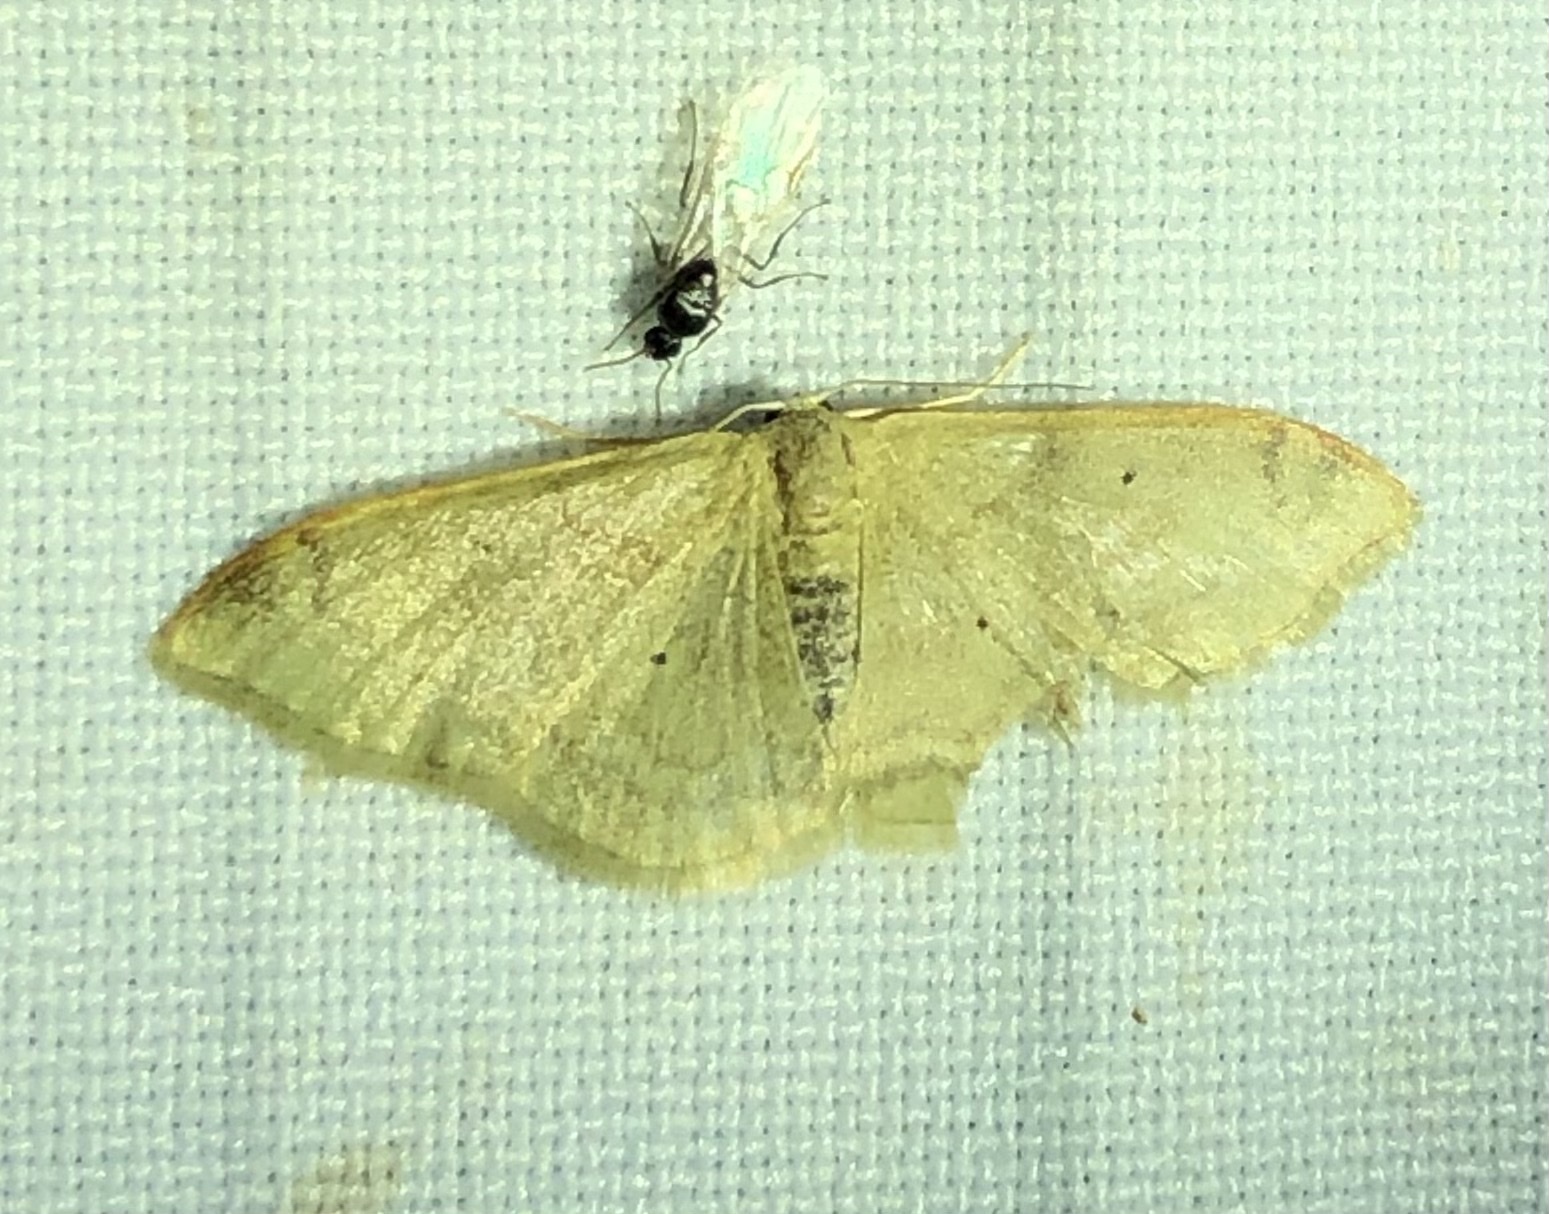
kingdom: Animalia
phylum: Arthropoda
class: Insecta
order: Lepidoptera
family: Geometridae
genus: Idaea
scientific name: Idaea degeneraria
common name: Portland ribbon wave
